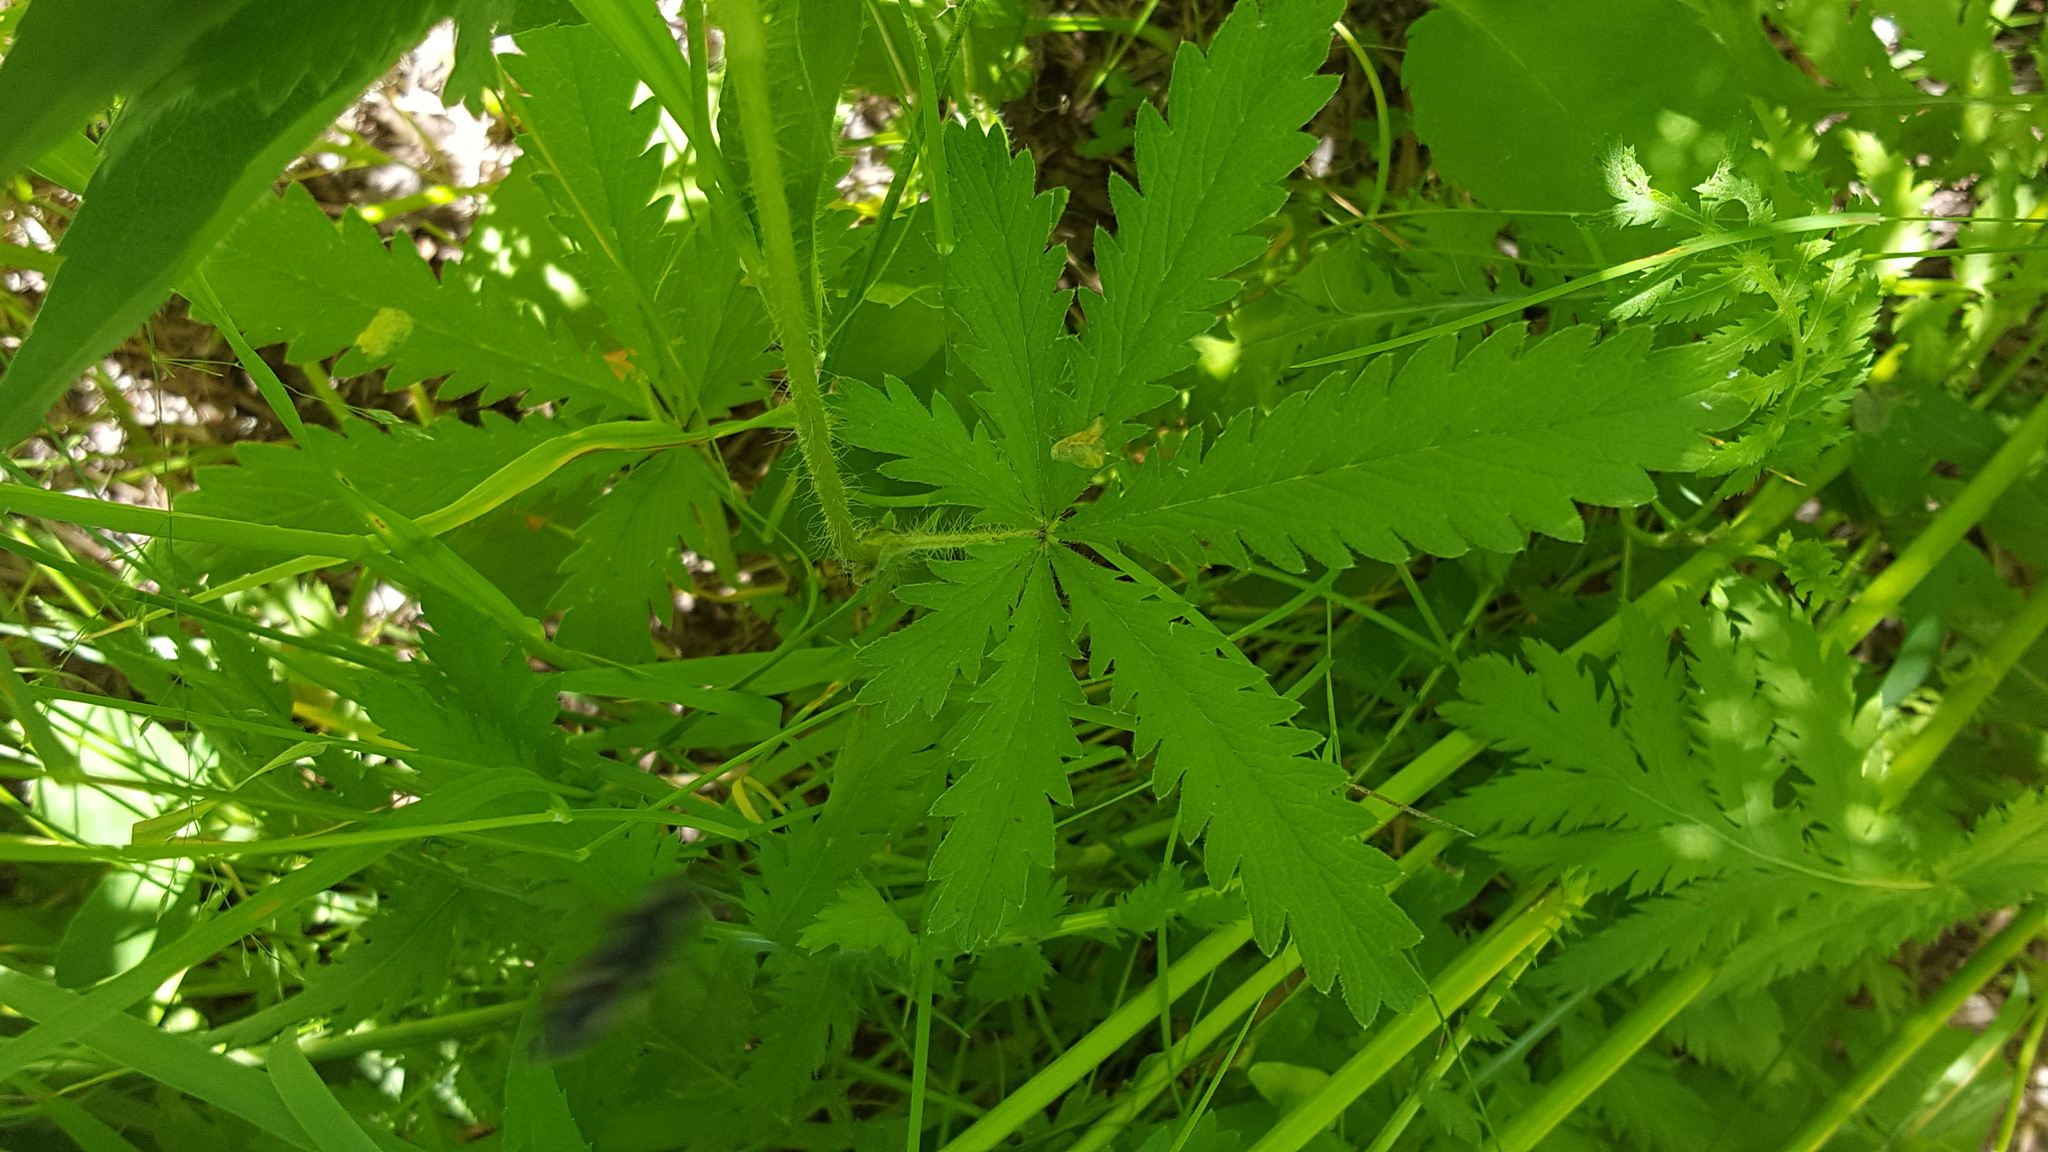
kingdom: Plantae
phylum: Tracheophyta
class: Magnoliopsida
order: Rosales
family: Rosaceae
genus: Potentilla
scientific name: Potentilla recta
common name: Sulphur cinquefoil
